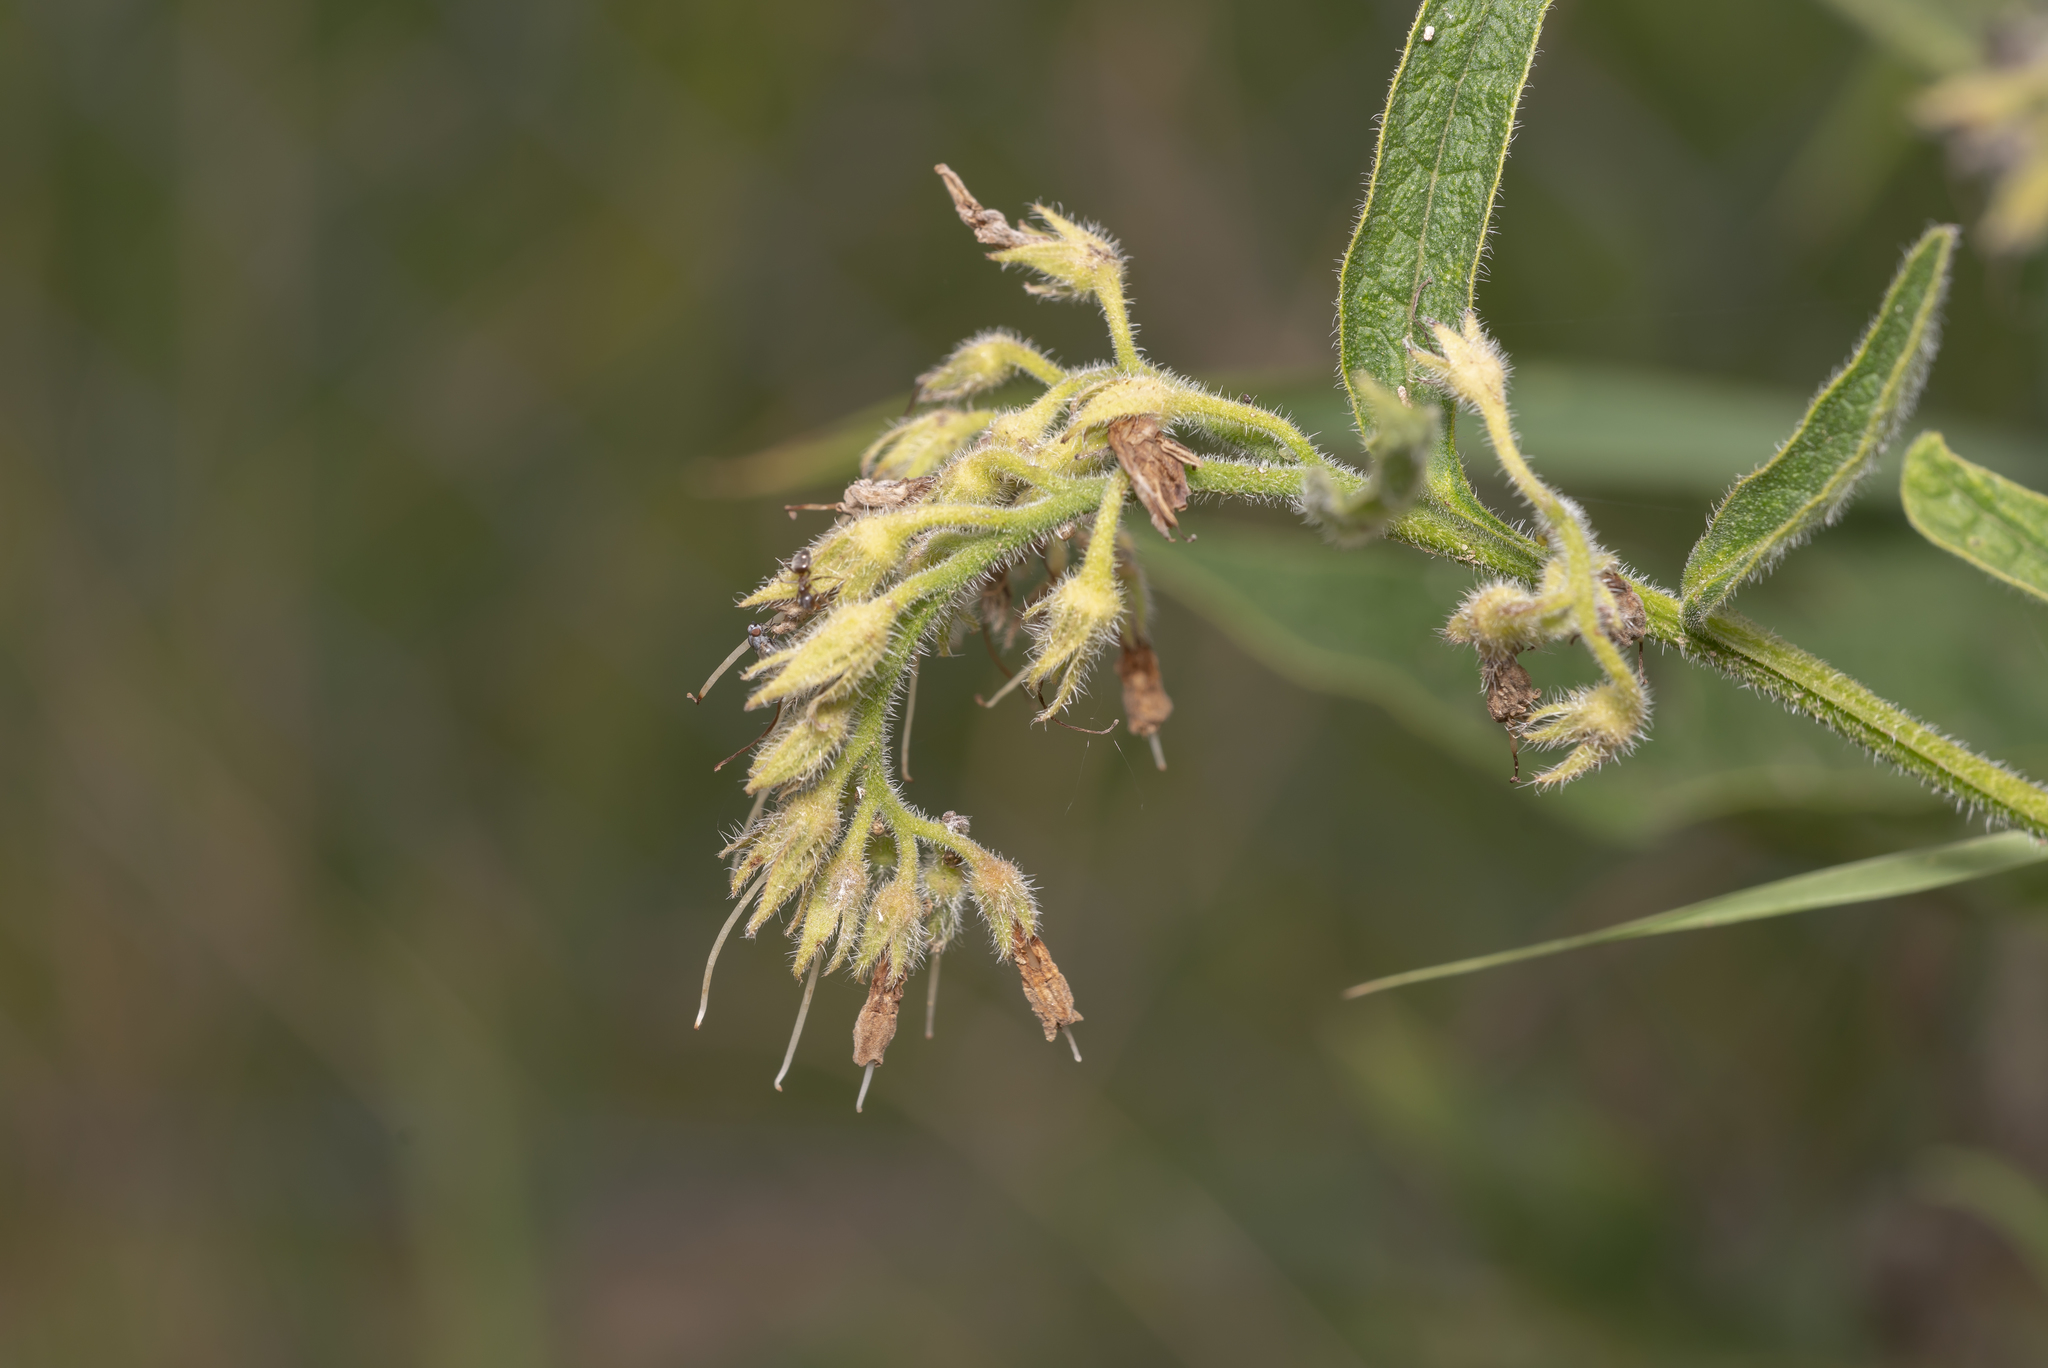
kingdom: Plantae
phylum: Tracheophyta
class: Magnoliopsida
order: Boraginales
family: Boraginaceae
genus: Symphytum
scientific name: Symphytum officinale
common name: Common comfrey
